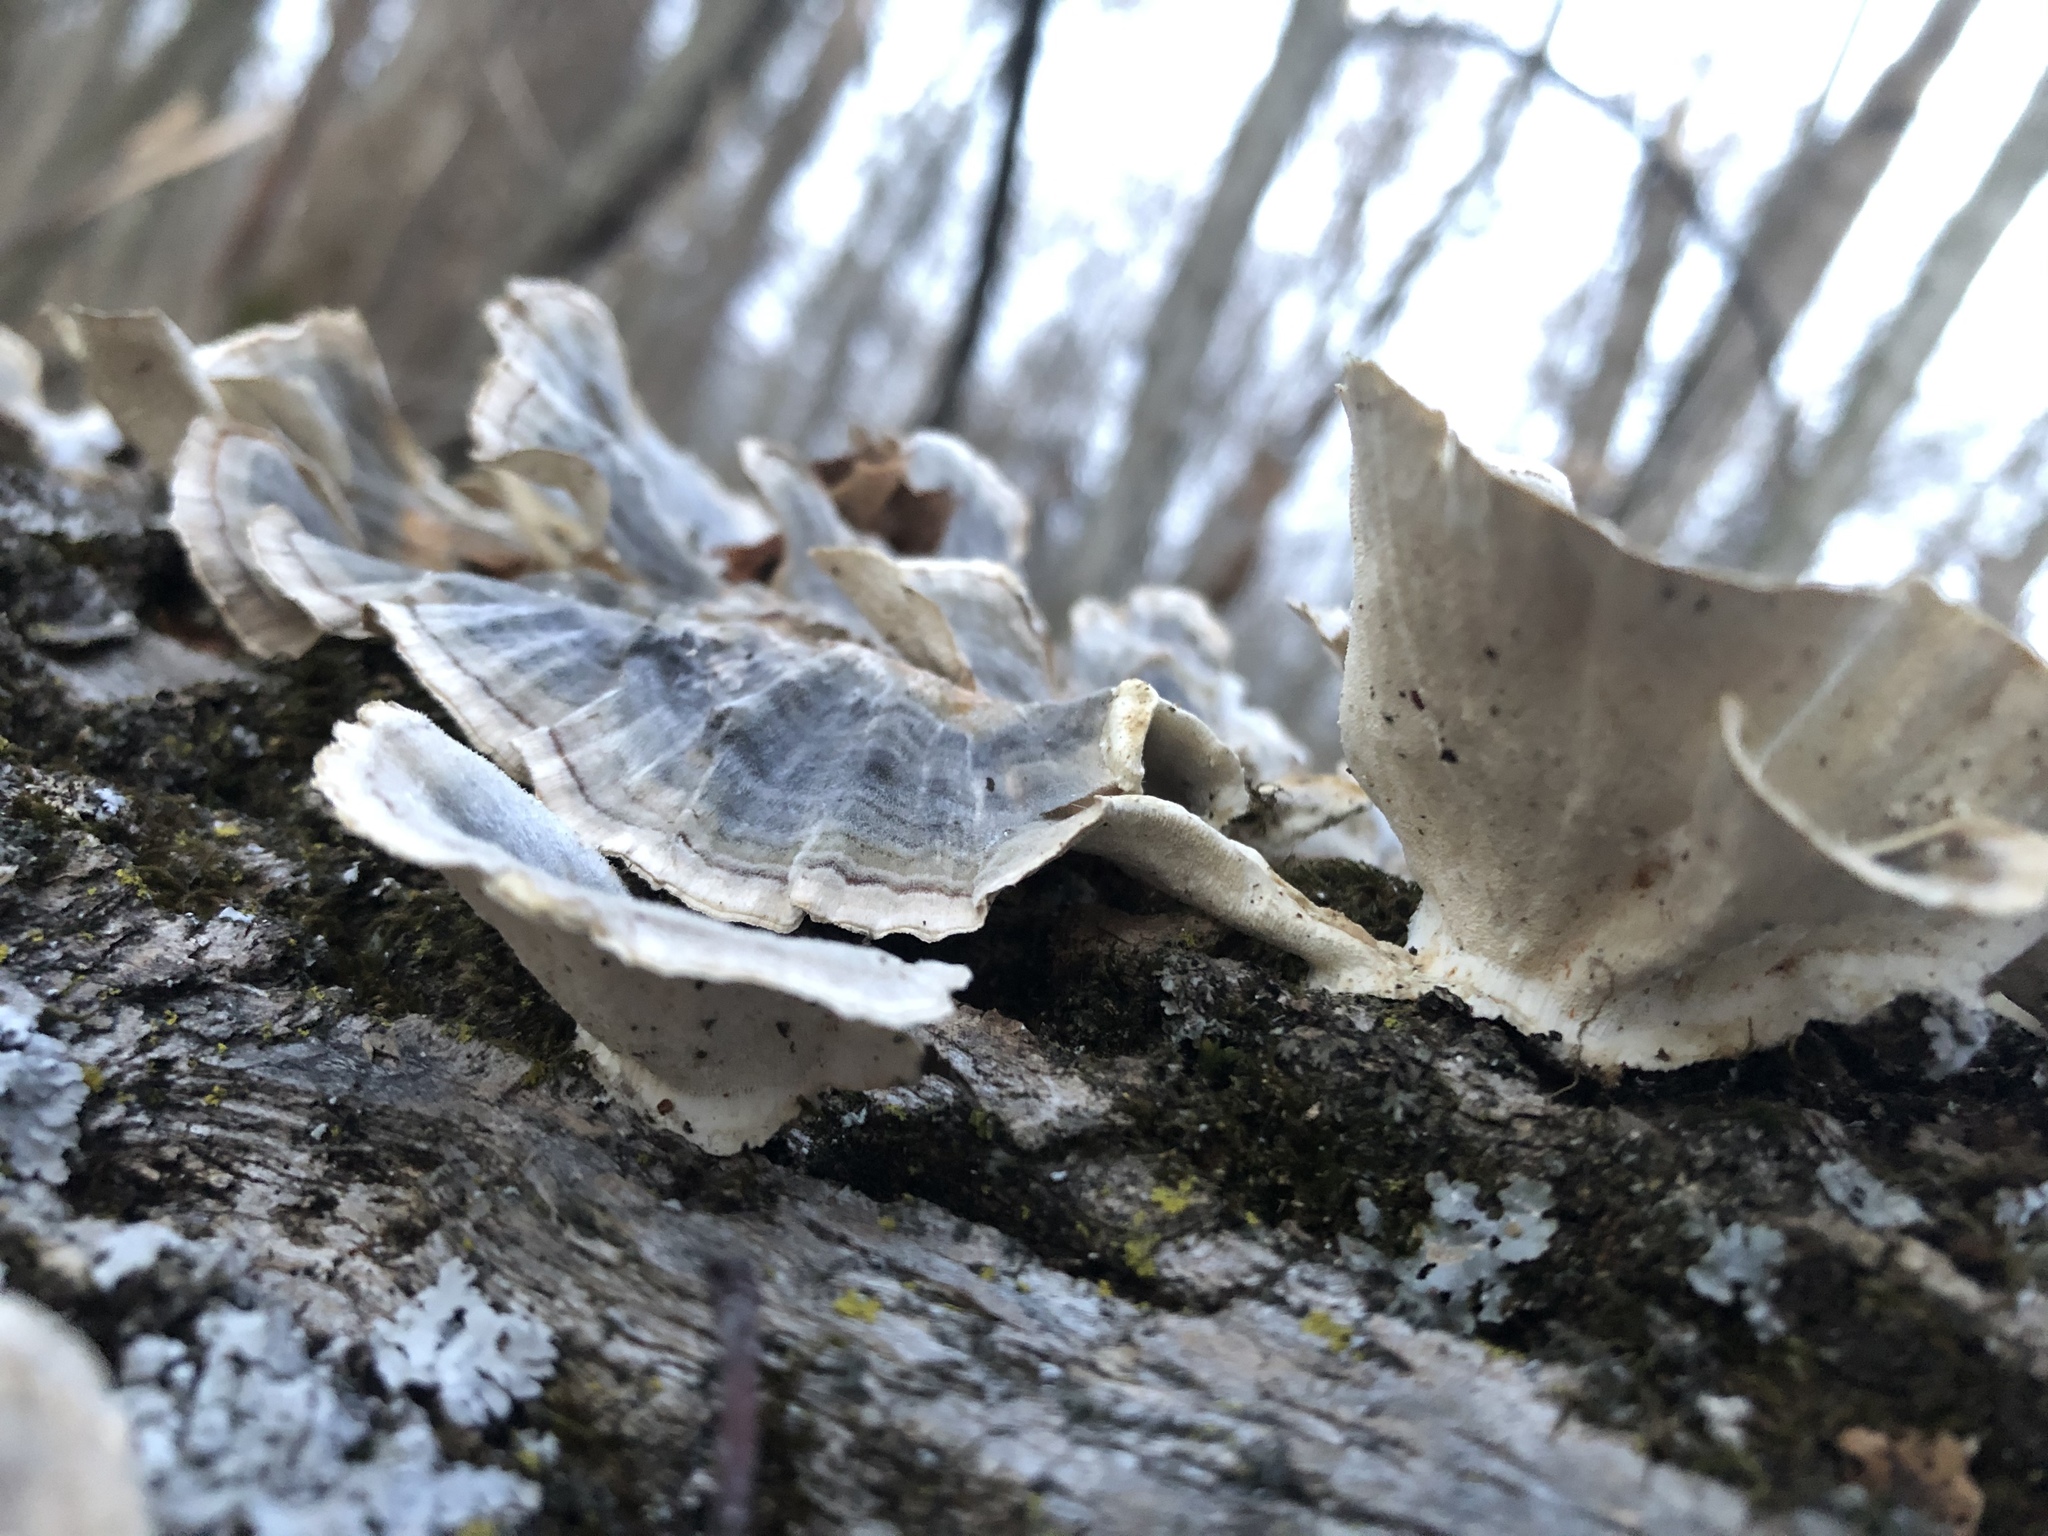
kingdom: Fungi
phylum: Basidiomycota
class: Agaricomycetes
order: Polyporales
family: Polyporaceae
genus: Trametes
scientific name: Trametes versicolor
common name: Turkeytail
